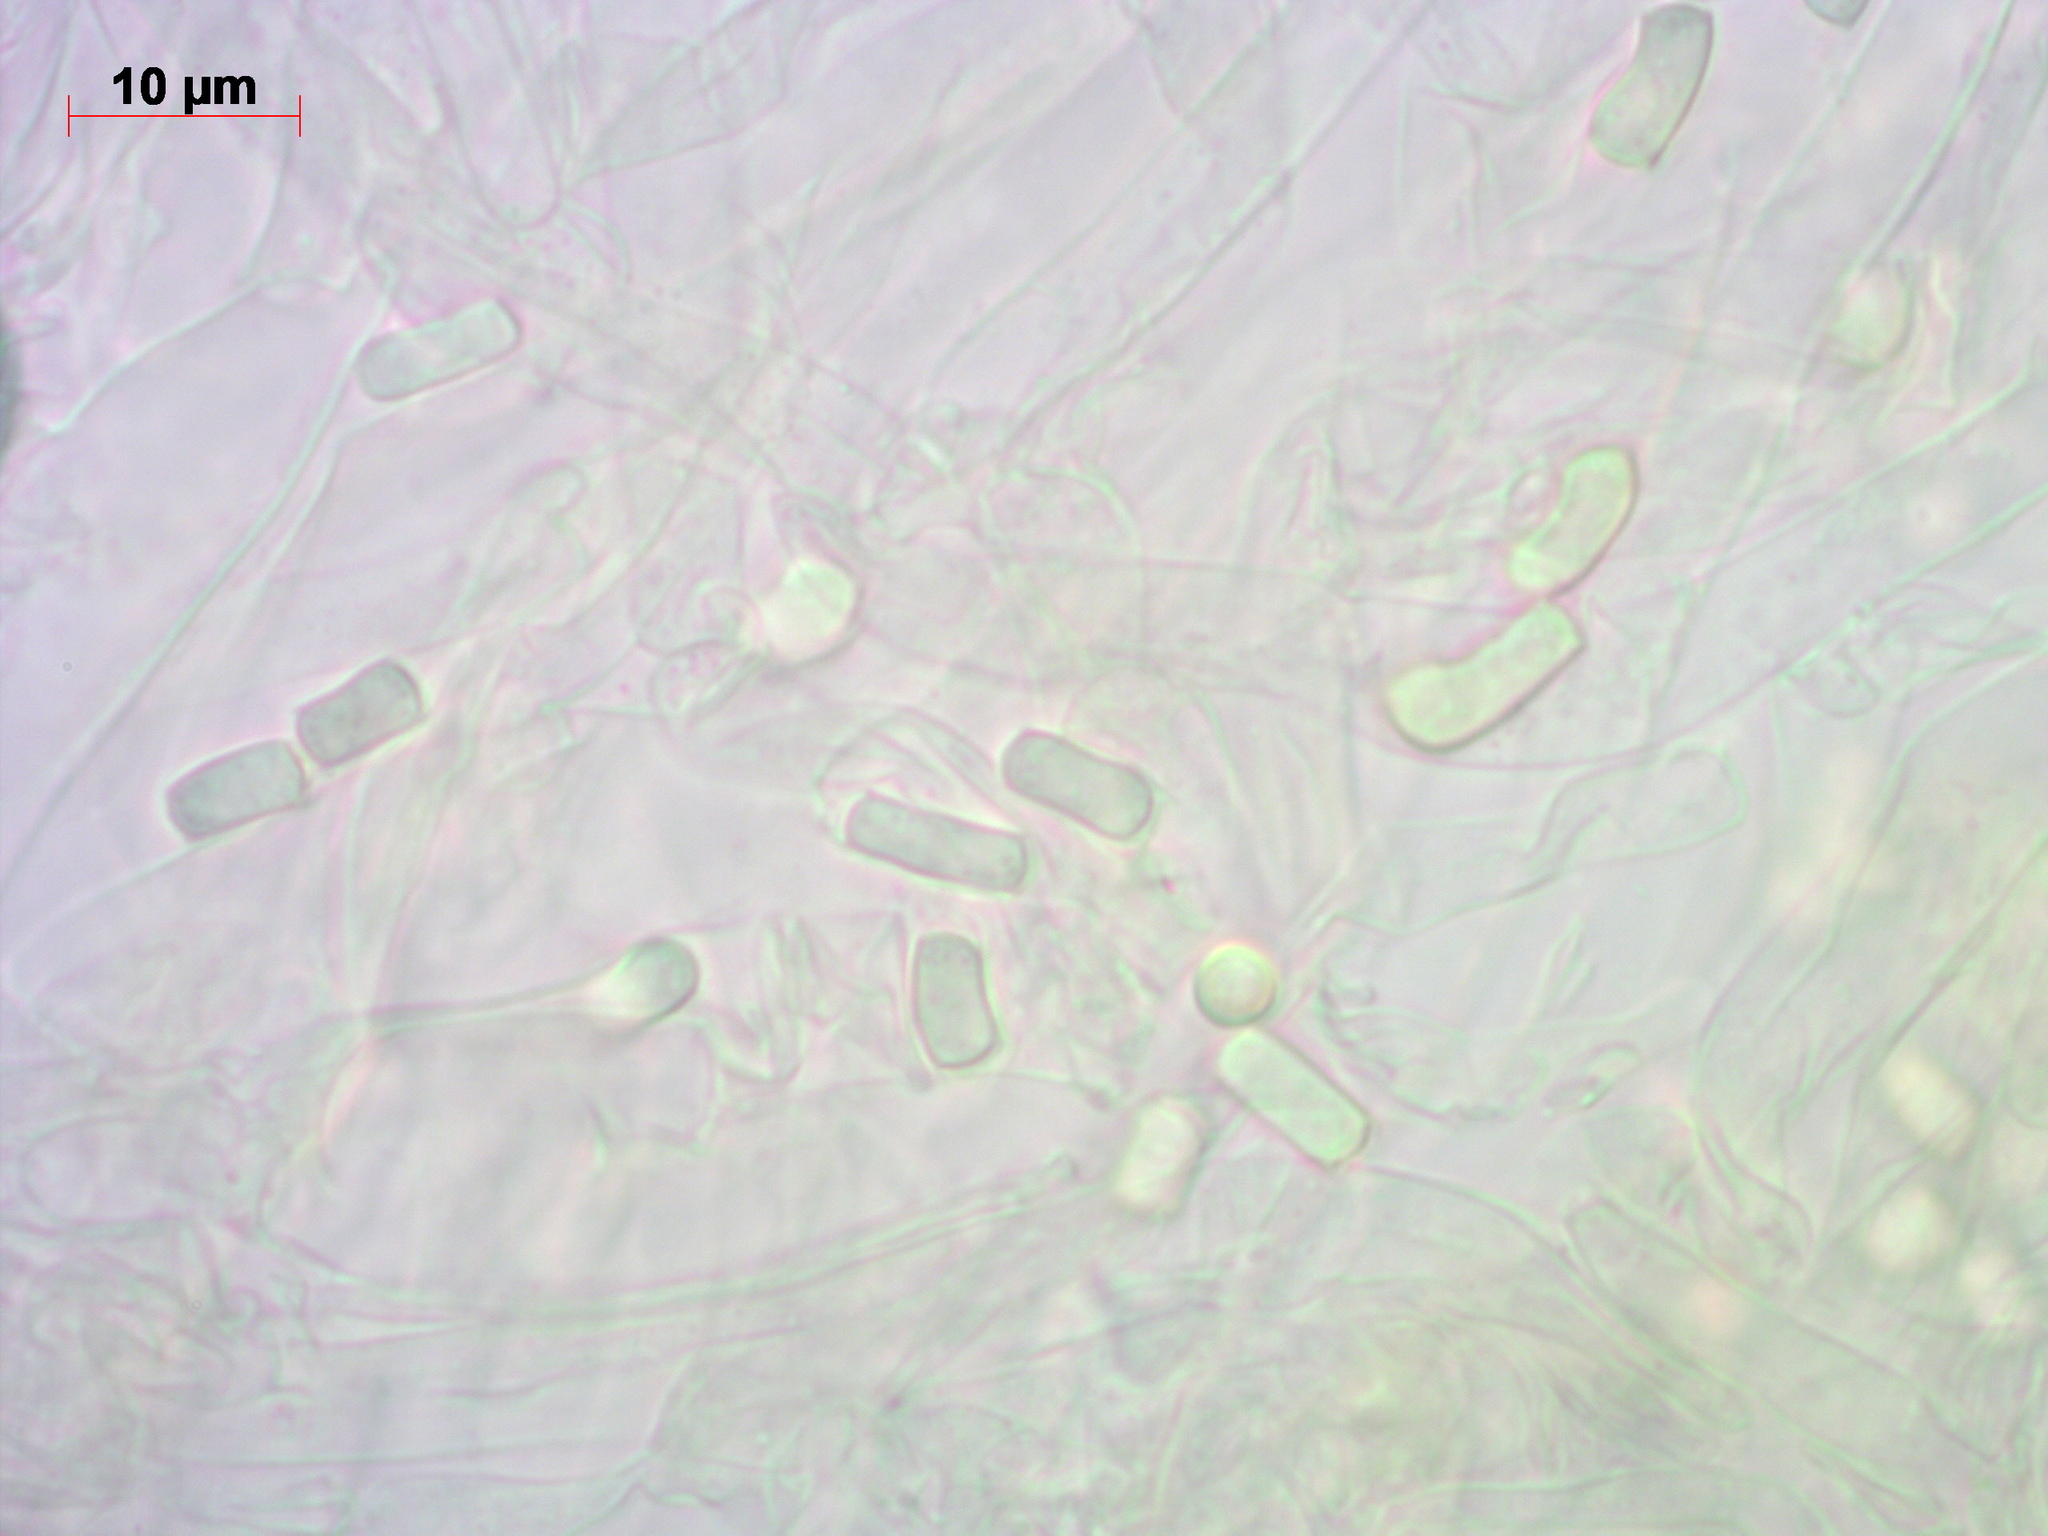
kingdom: Fungi
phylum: Basidiomycota
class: Agaricomycetes
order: Agaricales
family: Tricholomataceae
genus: Cystoderma
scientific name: Cystoderma jasonis
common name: Pine powdercap
